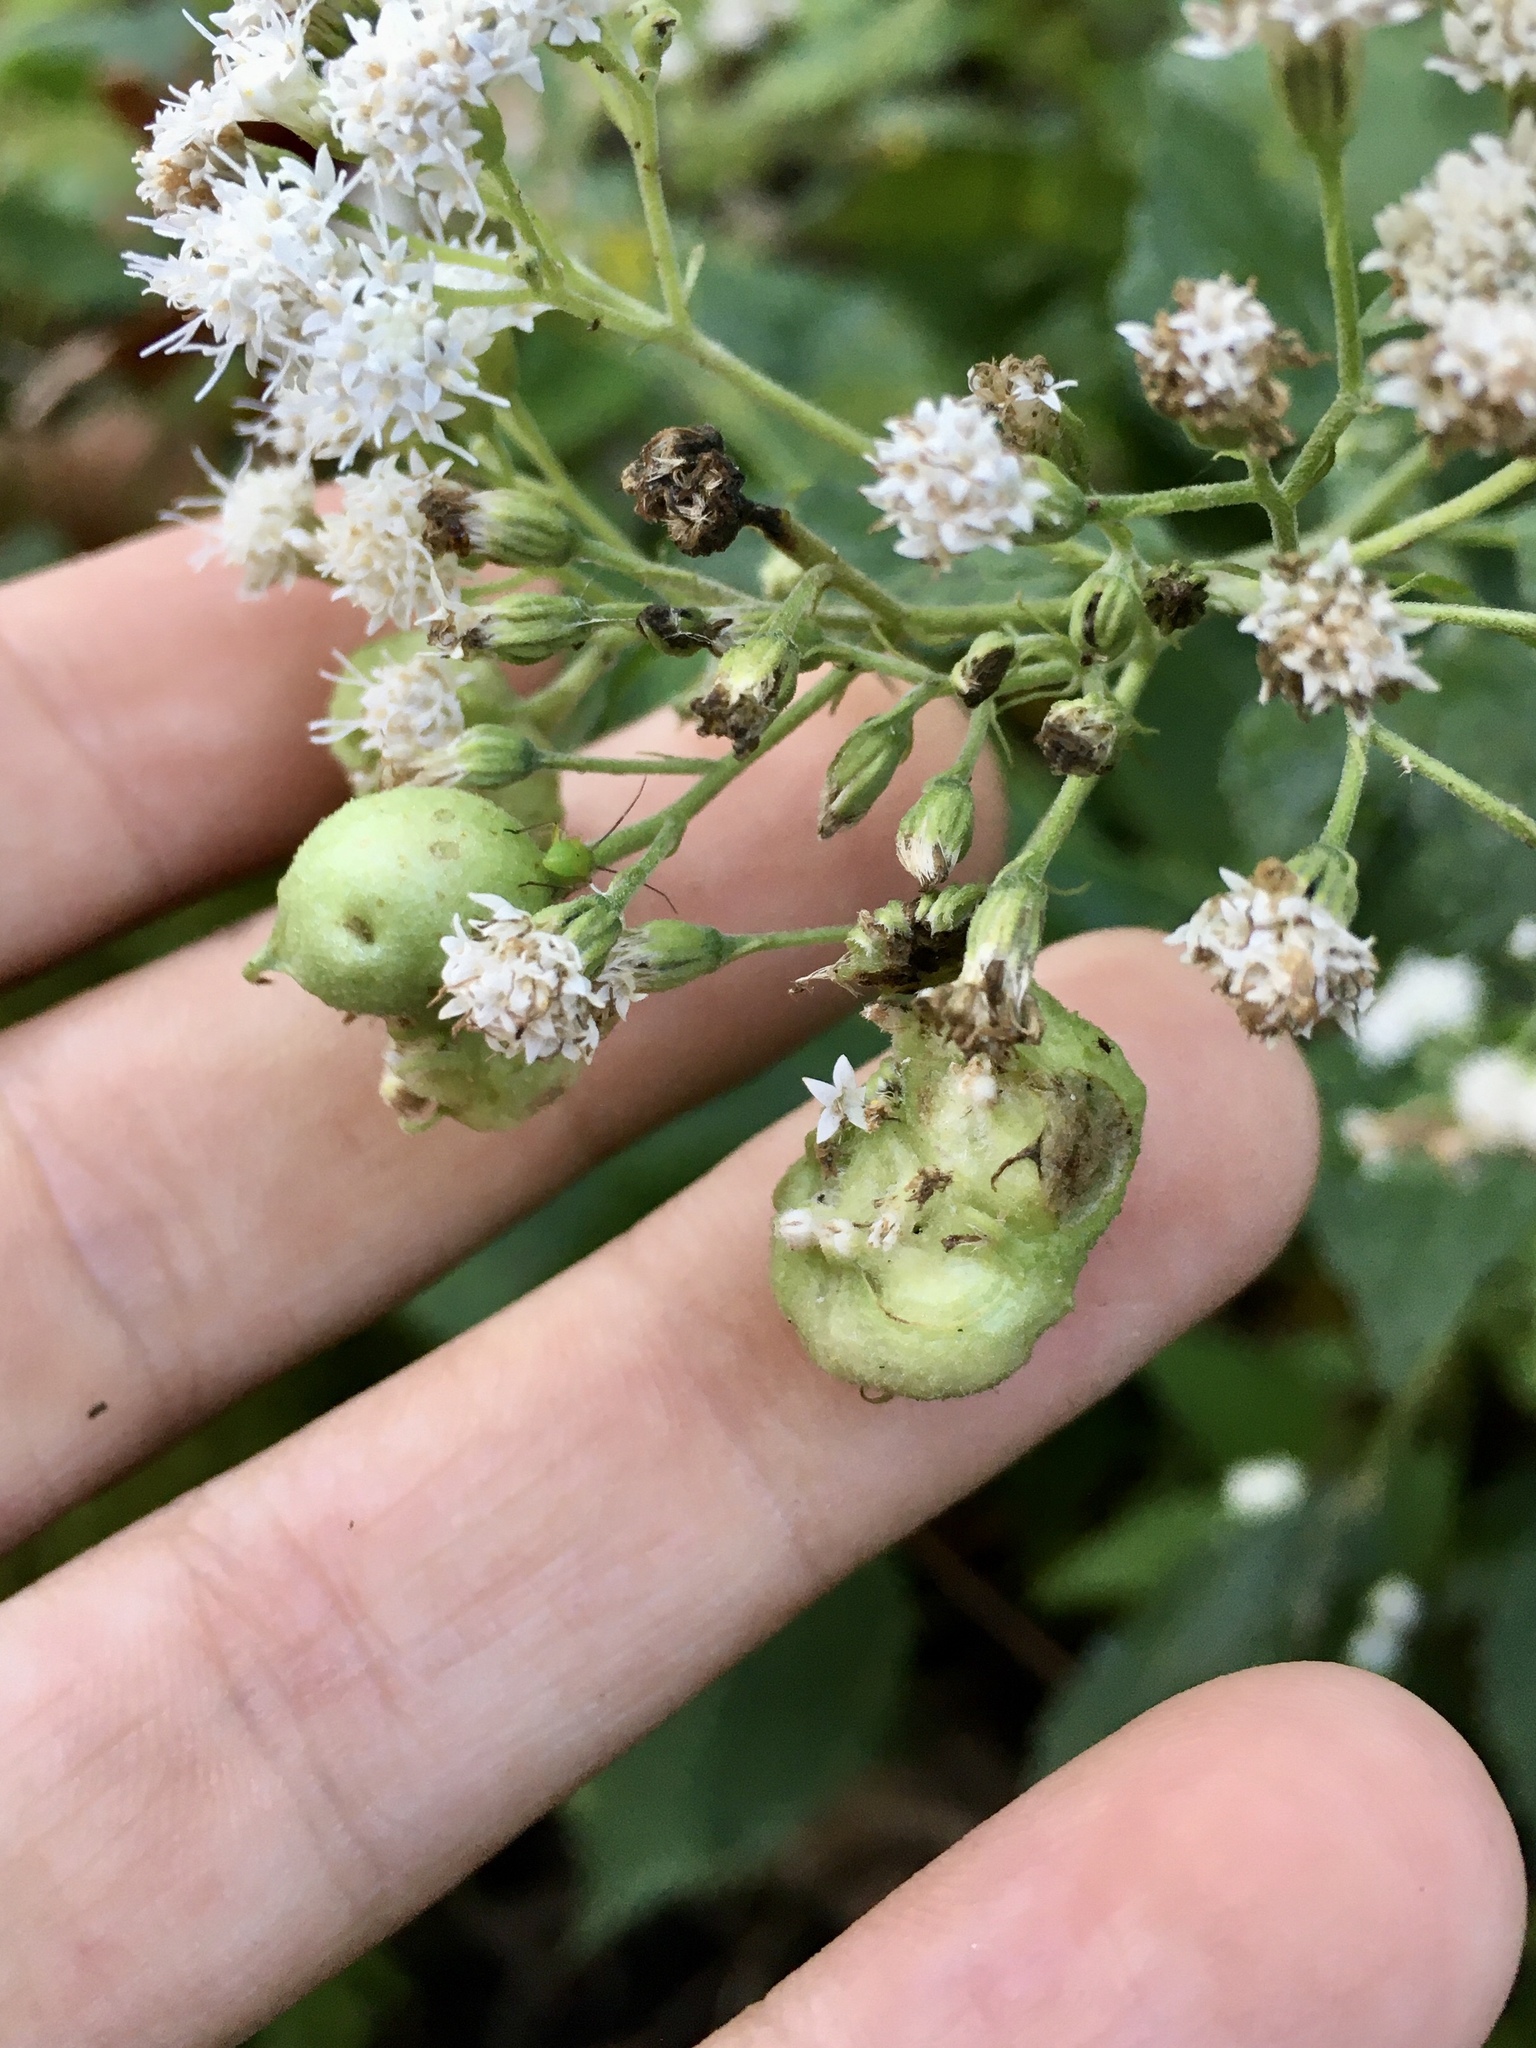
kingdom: Animalia
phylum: Arthropoda
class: Insecta
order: Diptera
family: Cecidomyiidae
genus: Schizomyia
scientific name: Schizomyia eupatoriflorae
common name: Boneset flower gall midge
